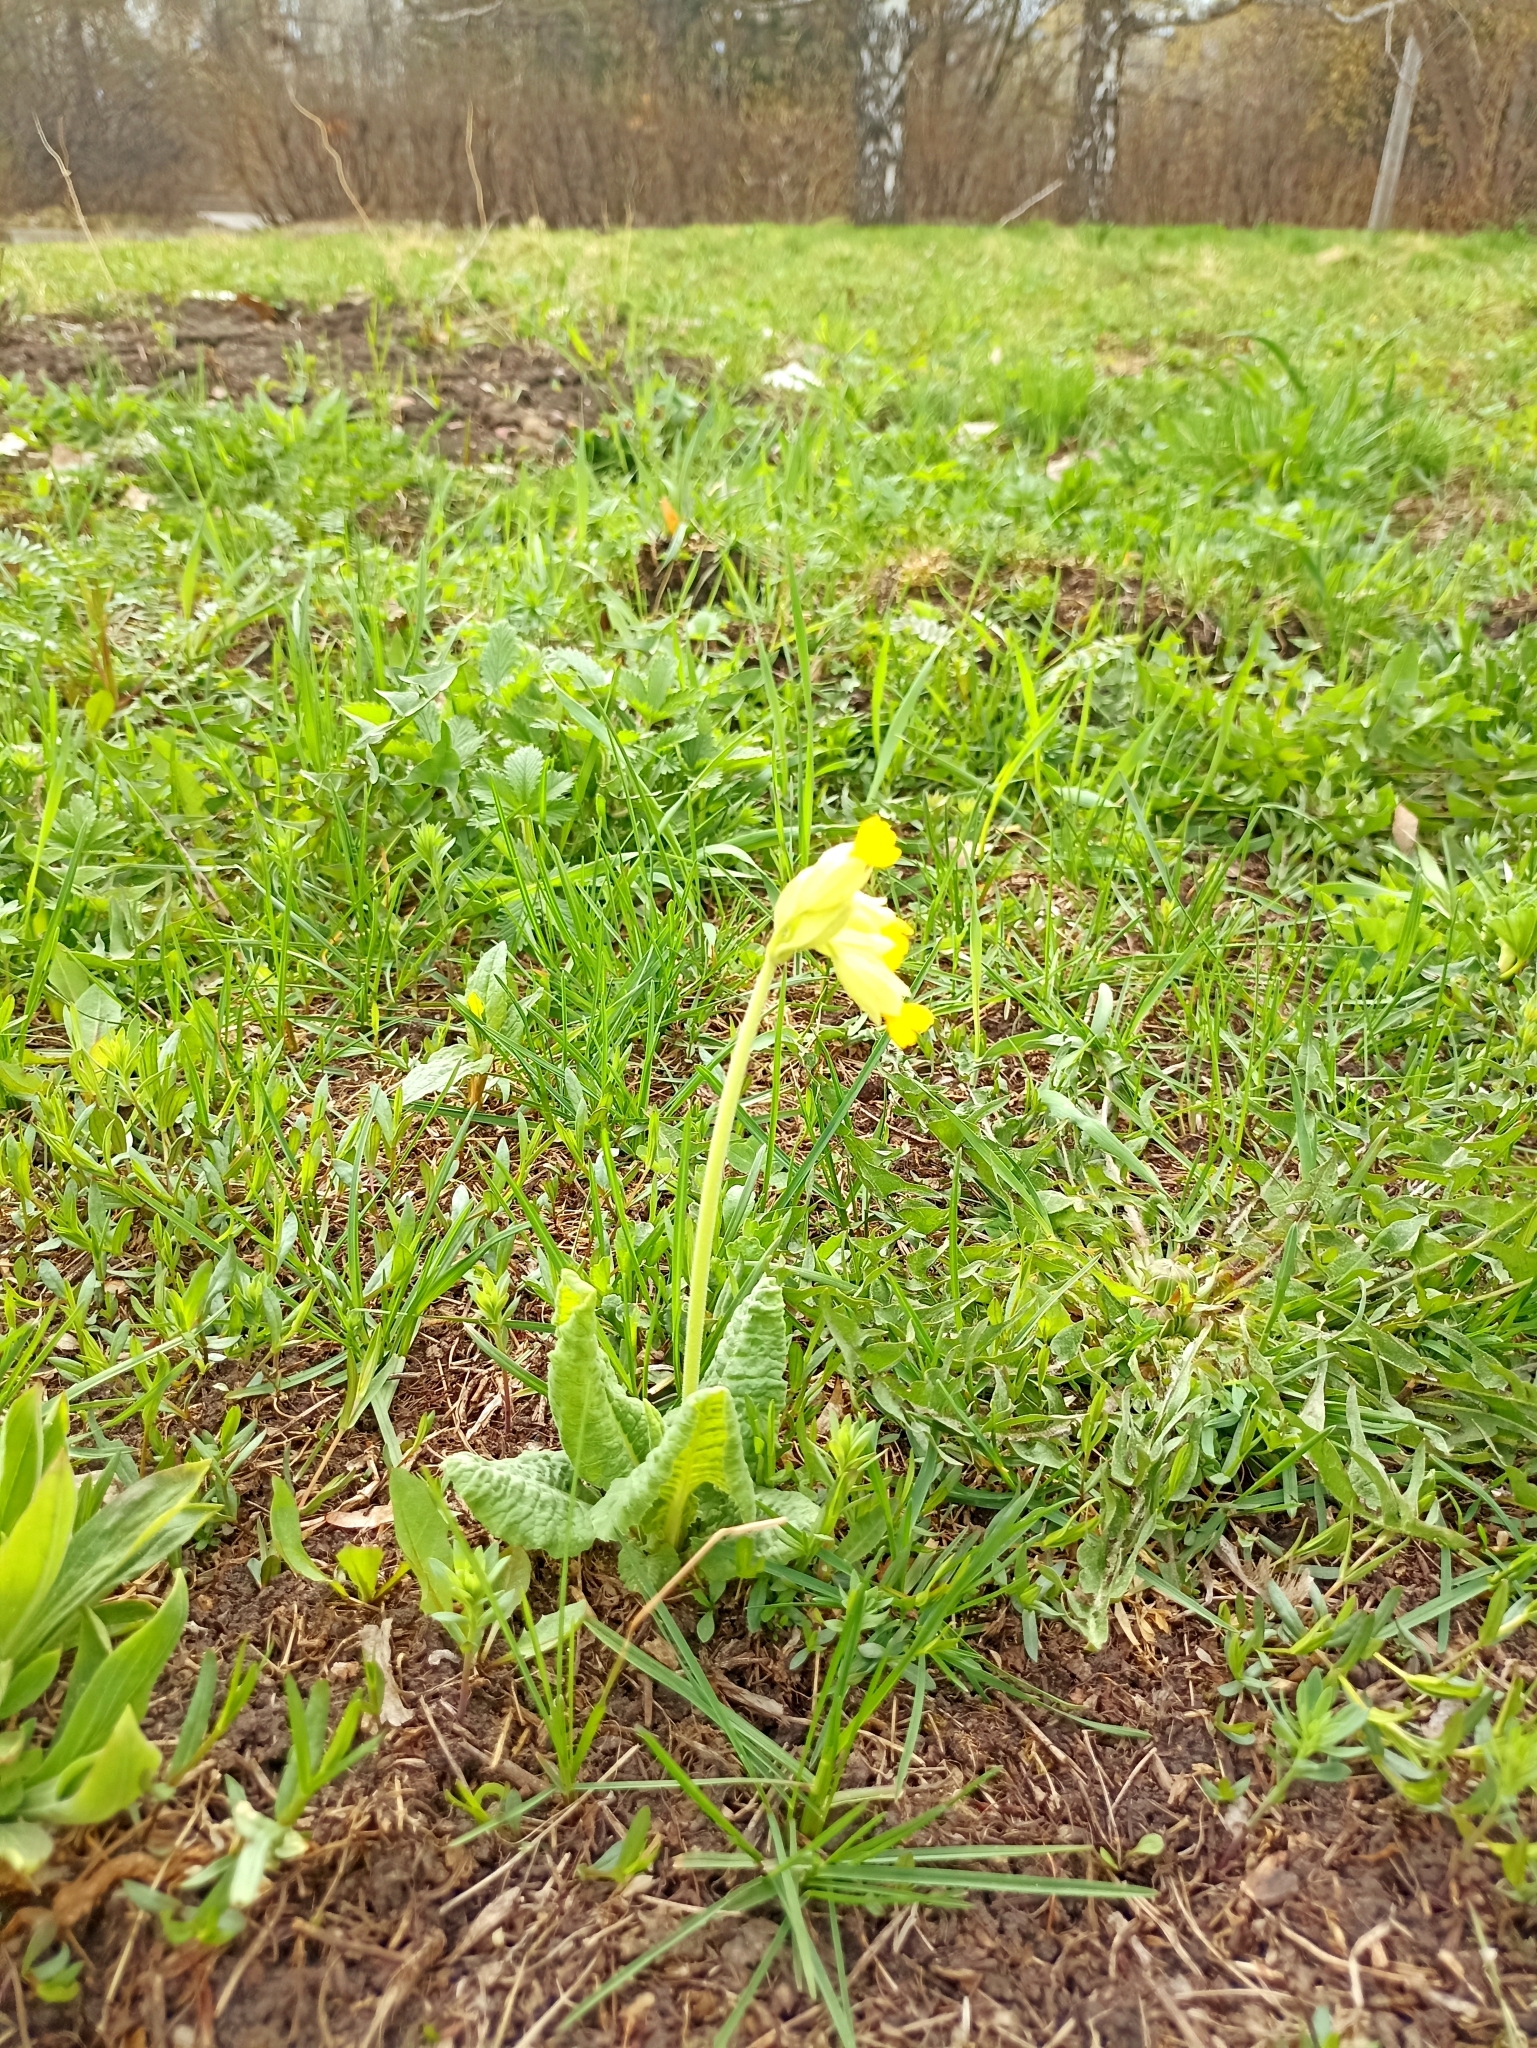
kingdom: Plantae
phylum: Tracheophyta
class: Magnoliopsida
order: Ericales
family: Primulaceae
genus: Primula
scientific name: Primula veris
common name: Cowslip
